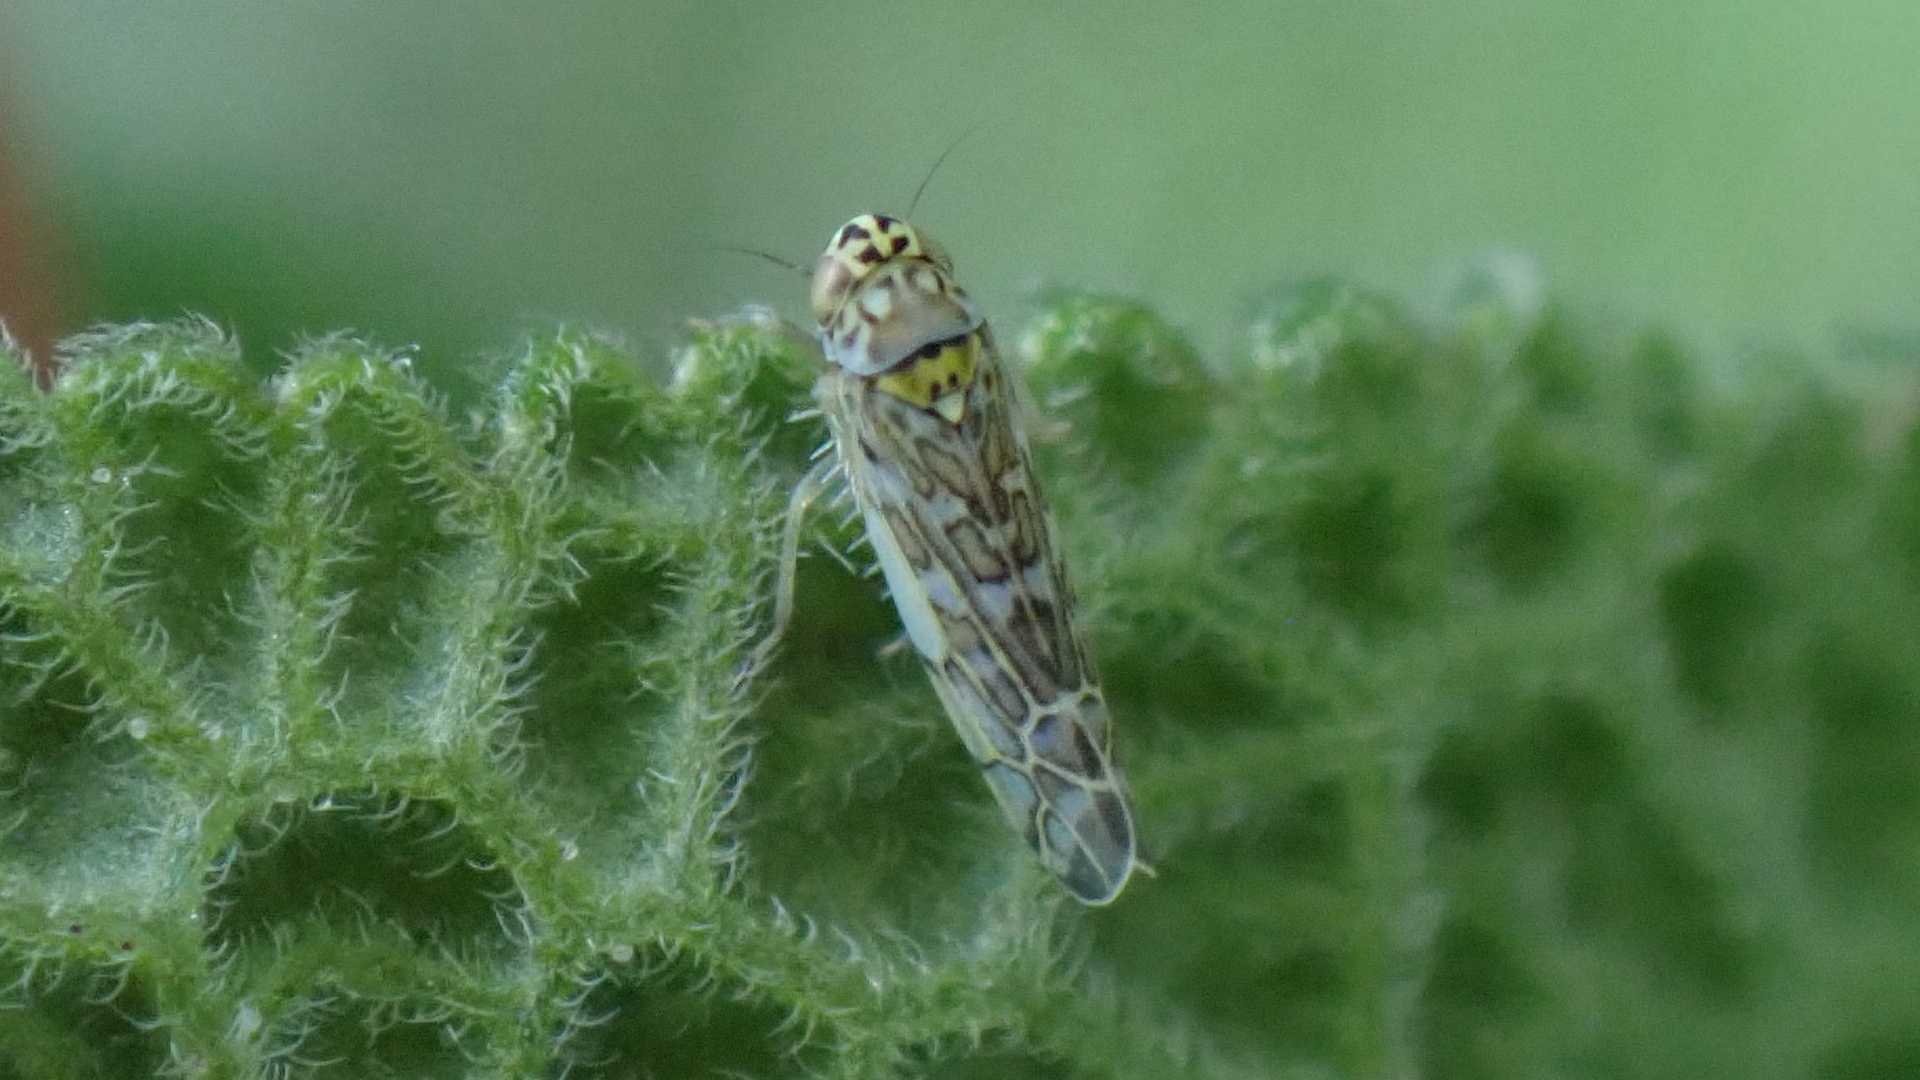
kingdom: Animalia
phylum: Arthropoda
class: Insecta
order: Hemiptera
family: Cicadellidae
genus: Eupteryx
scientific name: Eupteryx decemnotata
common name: Ligurian leafhopper
